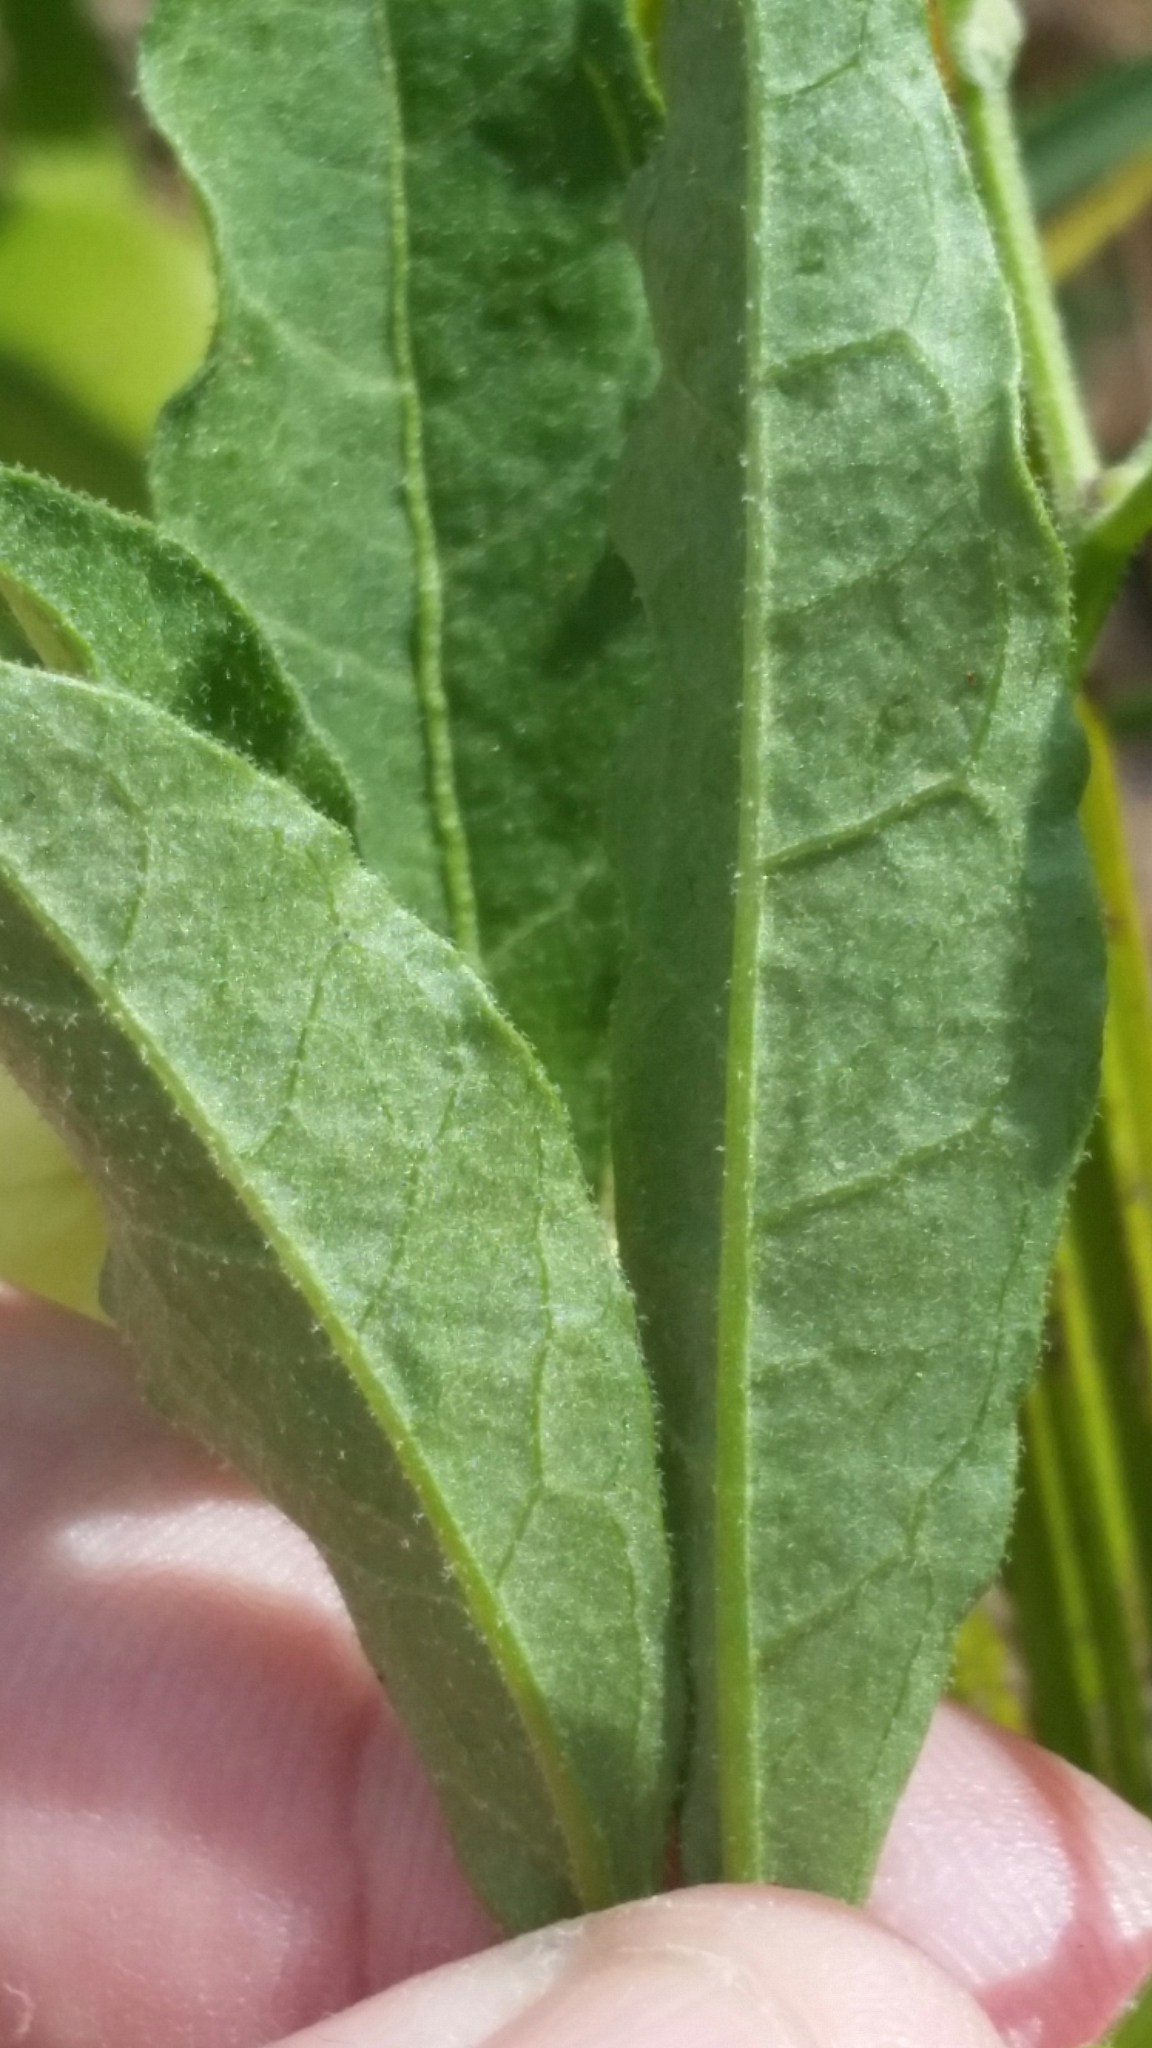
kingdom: Plantae
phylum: Tracheophyta
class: Magnoliopsida
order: Solanales
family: Solanaceae
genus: Physalis
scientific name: Physalis walteri
